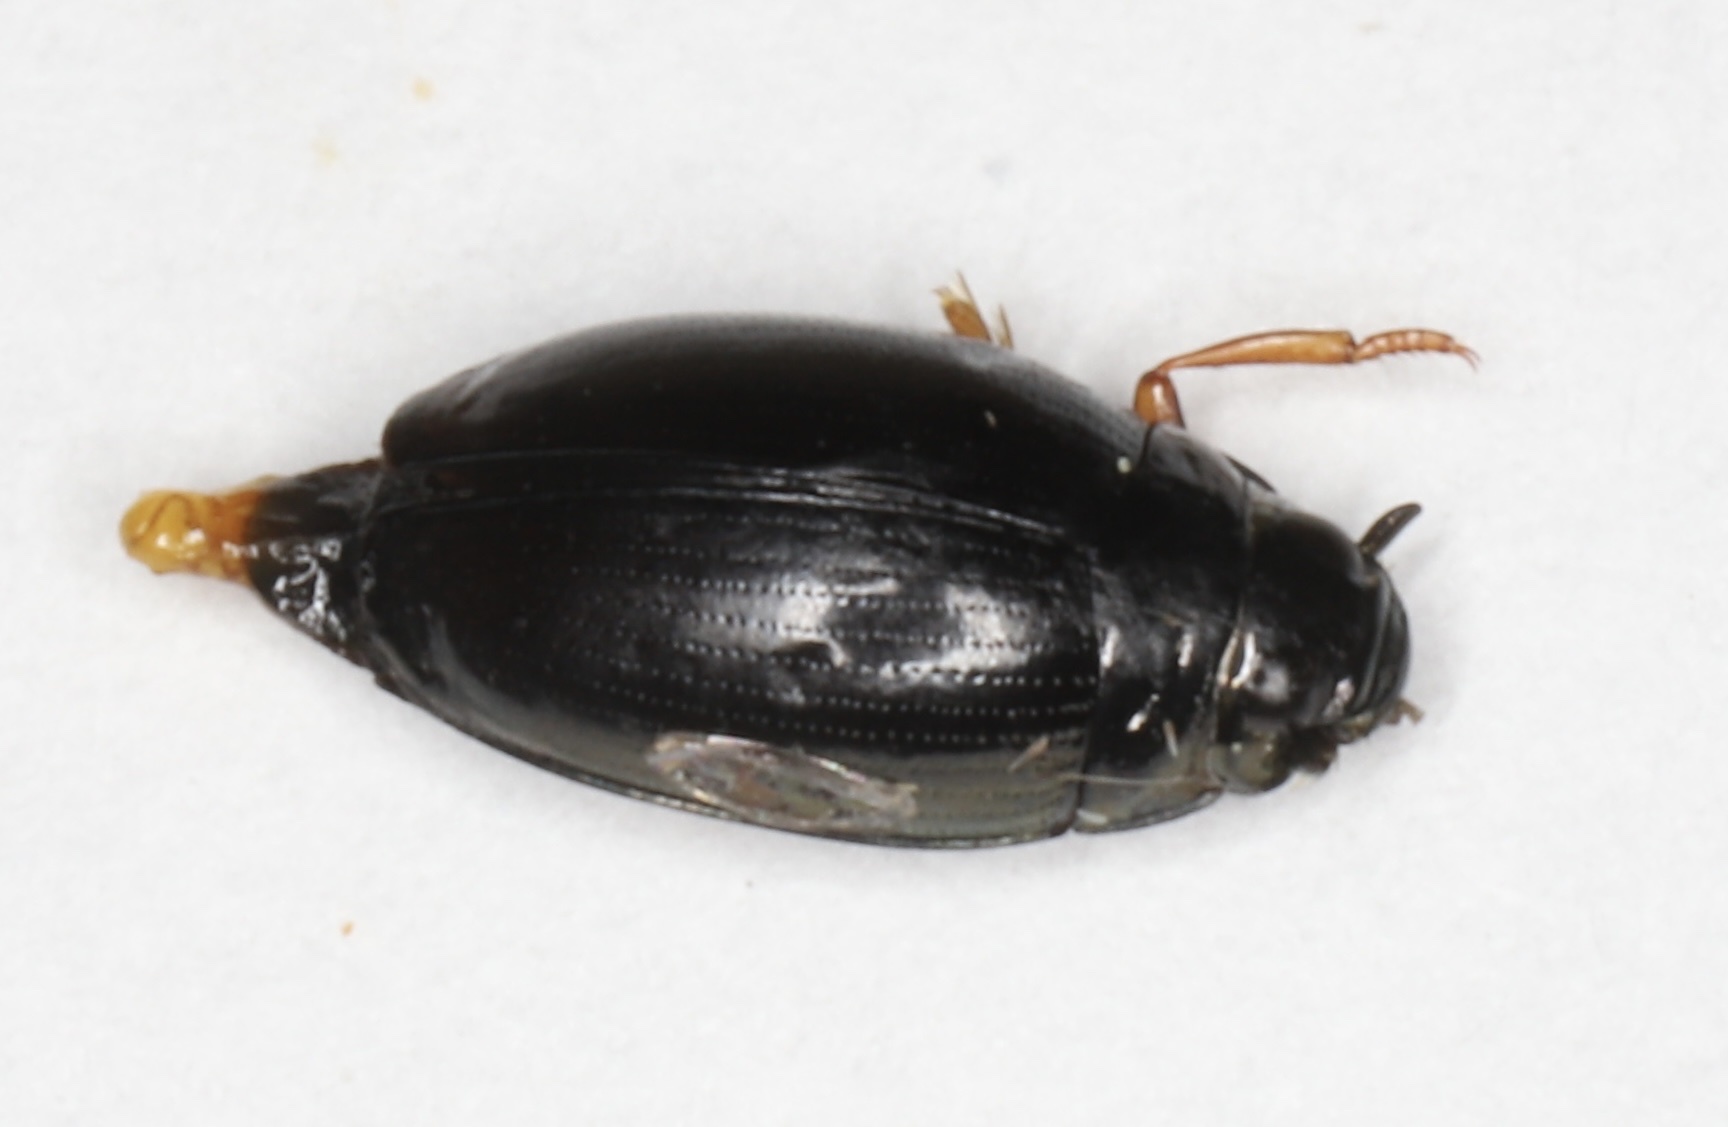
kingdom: Animalia
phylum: Arthropoda
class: Insecta
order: Coleoptera
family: Gyrinidae
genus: Gyrinus
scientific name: Gyrinus
